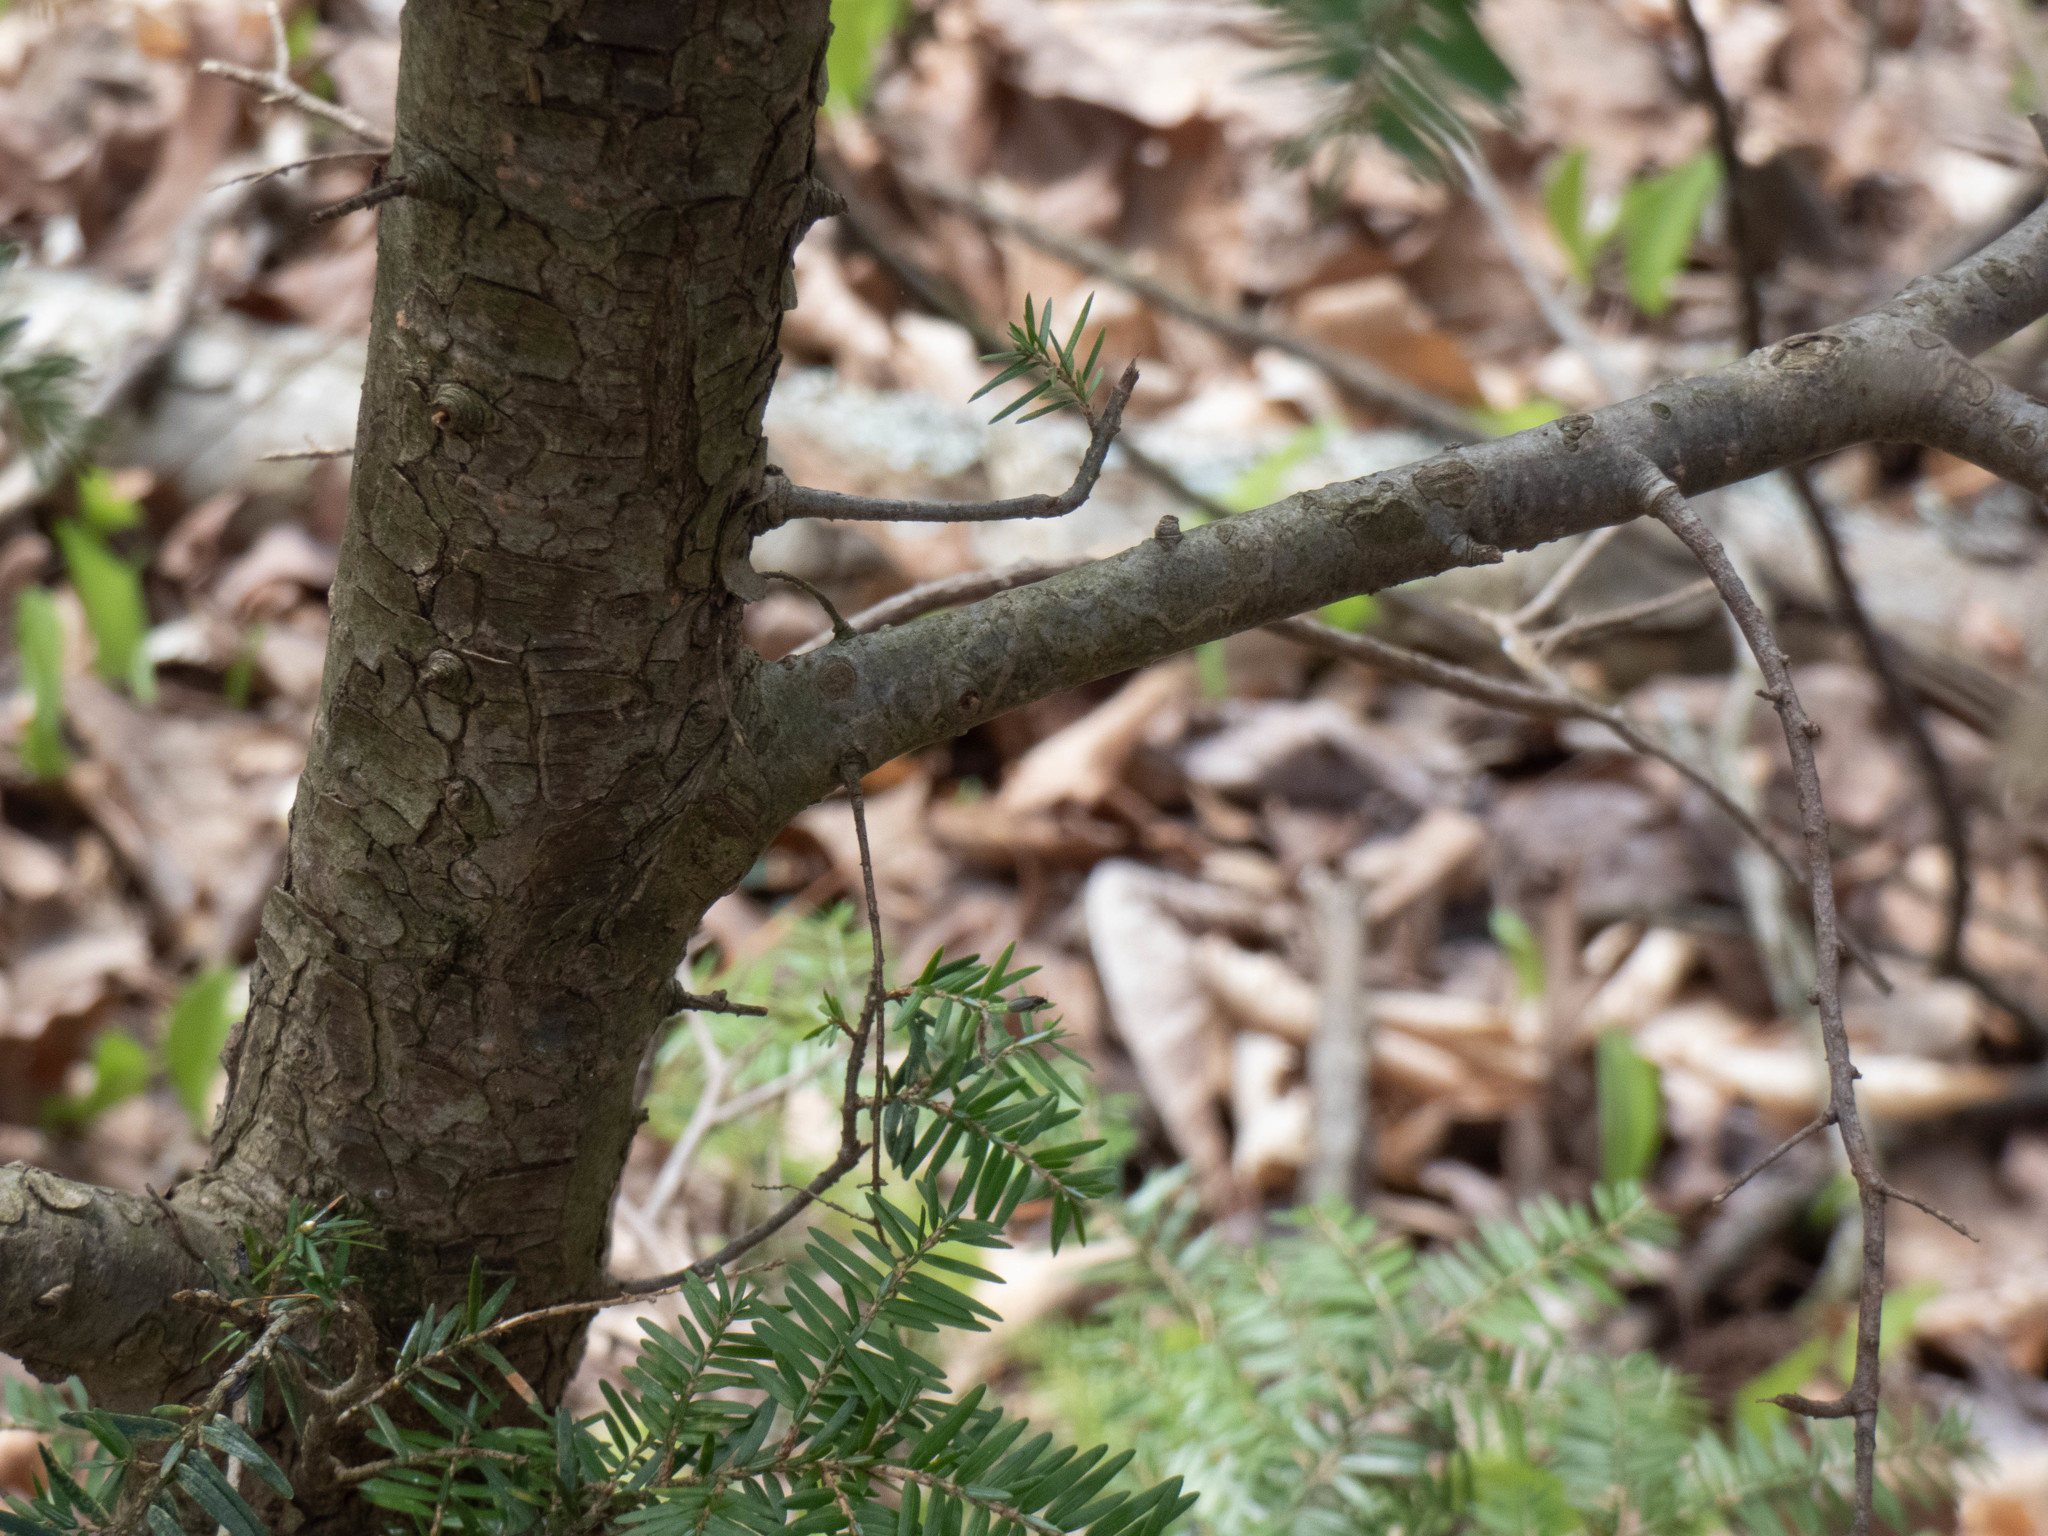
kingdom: Plantae
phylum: Tracheophyta
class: Pinopsida
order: Pinales
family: Pinaceae
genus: Tsuga
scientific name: Tsuga canadensis
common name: Eastern hemlock
